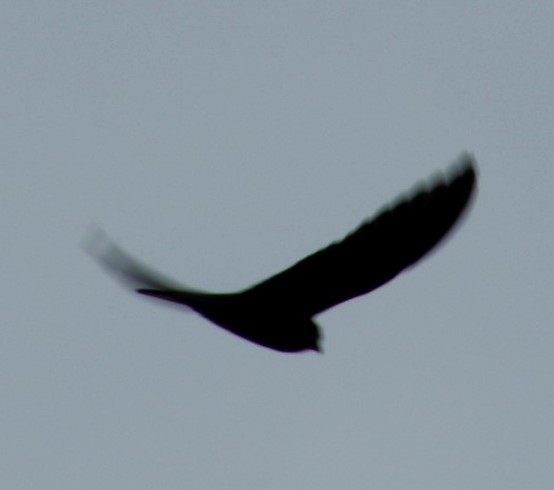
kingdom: Animalia
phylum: Chordata
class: Aves
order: Falconiformes
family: Falconidae
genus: Falco
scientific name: Falco rupicolus
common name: Rock kestrel
